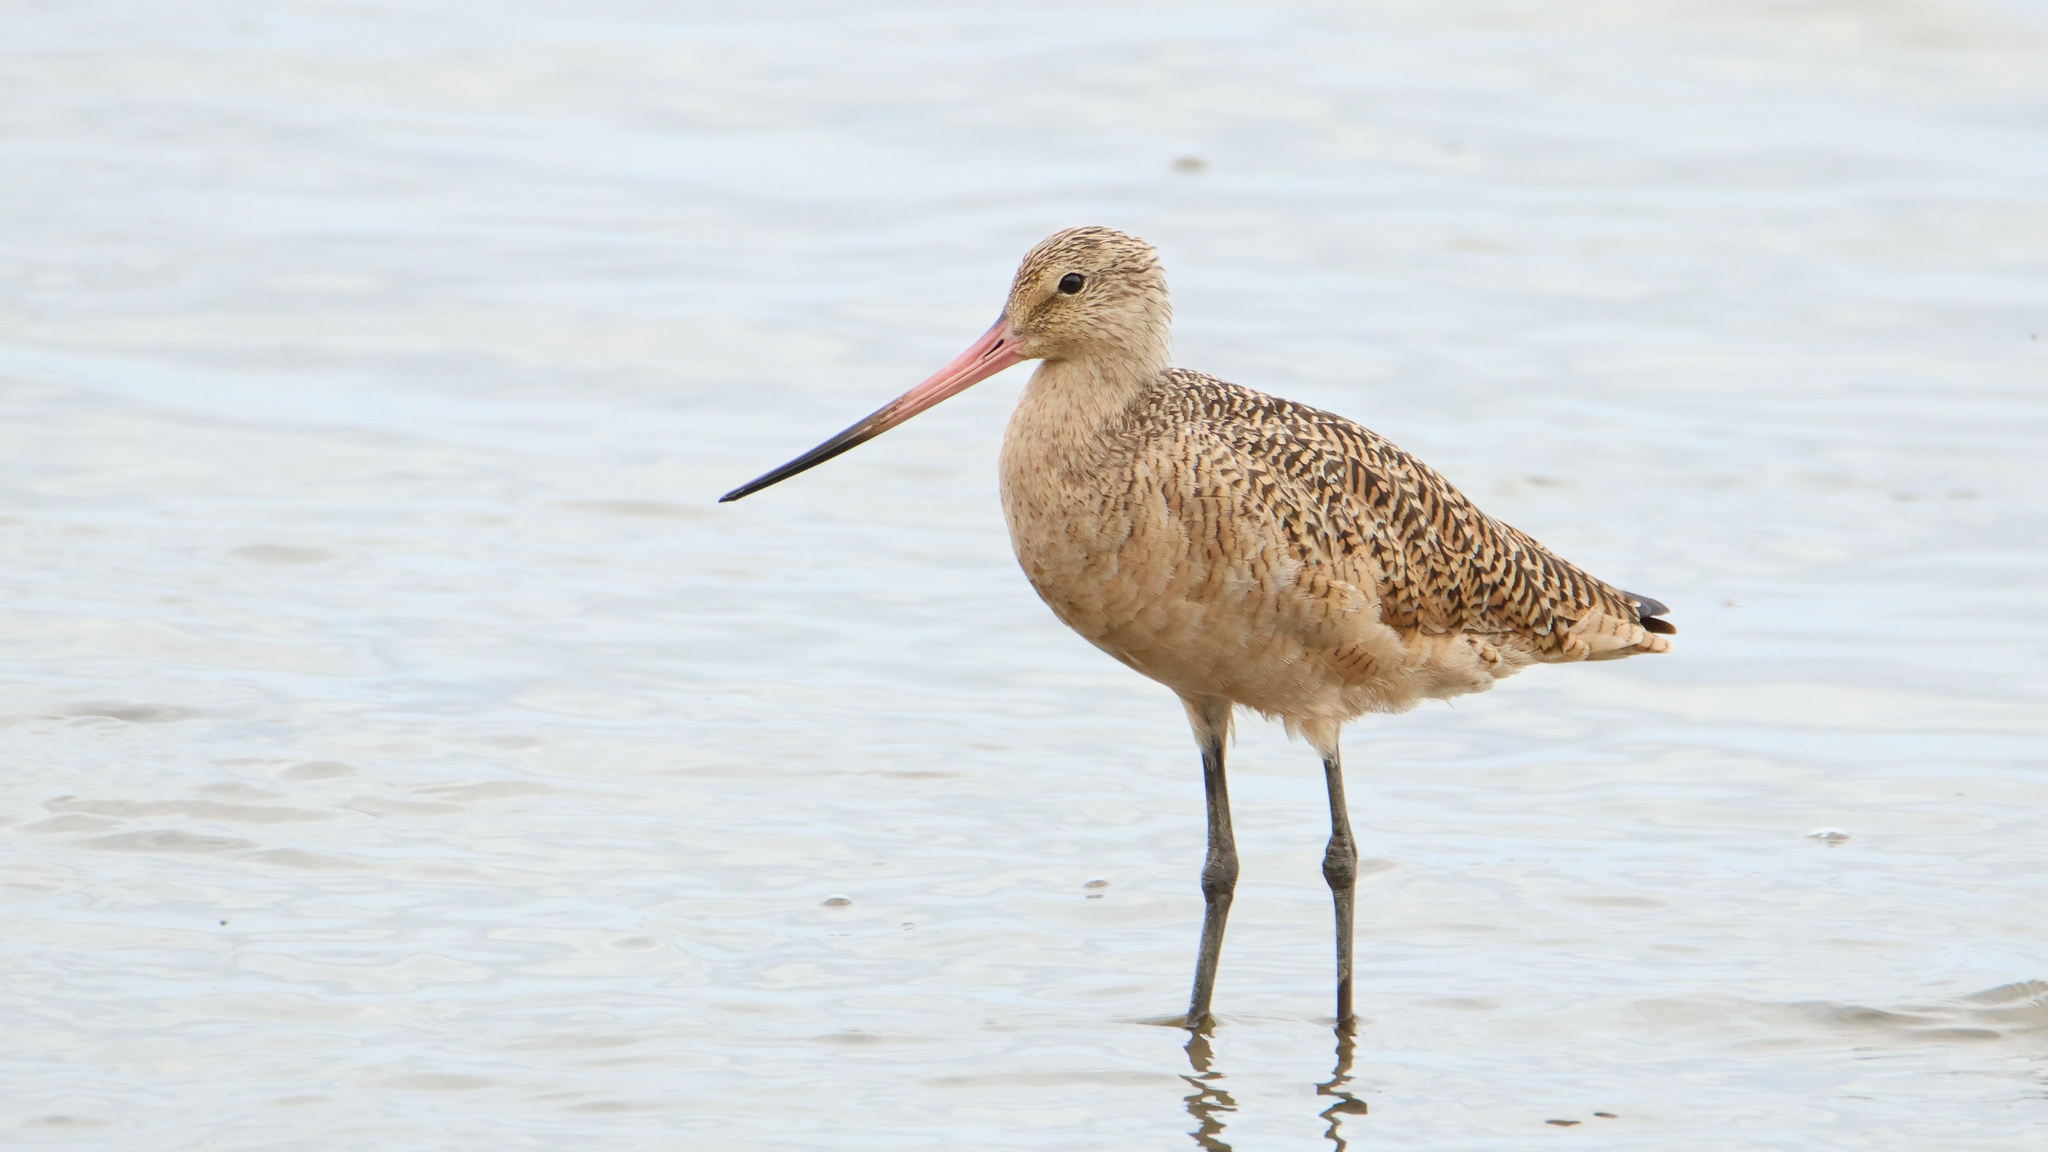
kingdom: Animalia
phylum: Chordata
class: Aves
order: Charadriiformes
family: Scolopacidae
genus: Limosa
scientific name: Limosa fedoa
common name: Marbled godwit
